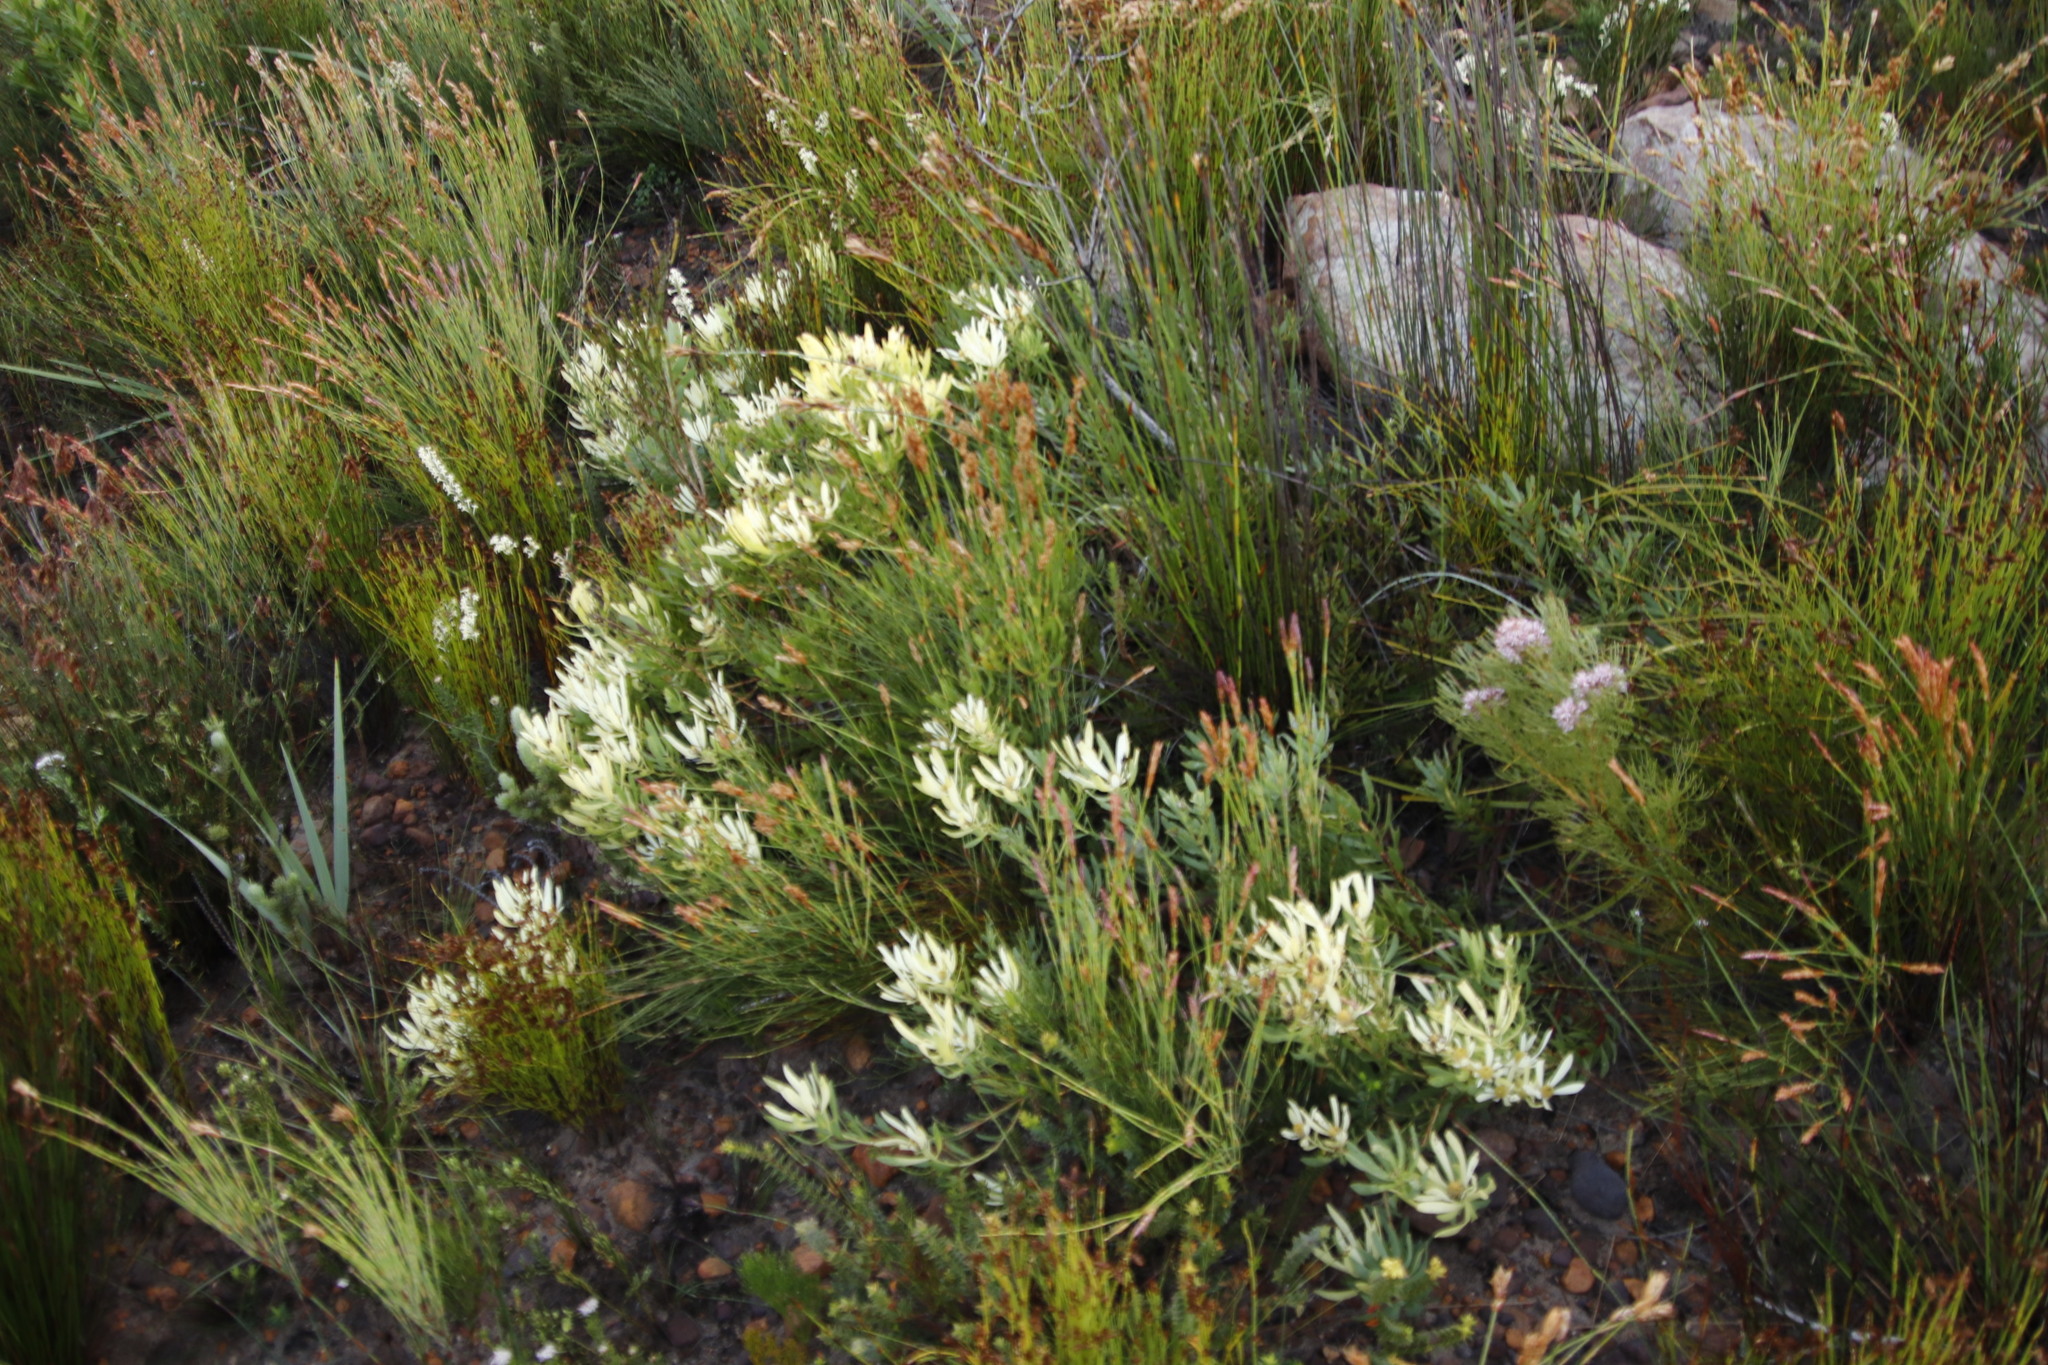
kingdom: Plantae
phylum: Tracheophyta
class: Magnoliopsida
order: Proteales
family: Proteaceae
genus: Leucadendron
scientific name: Leucadendron salignum
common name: Common sunshine conebush
